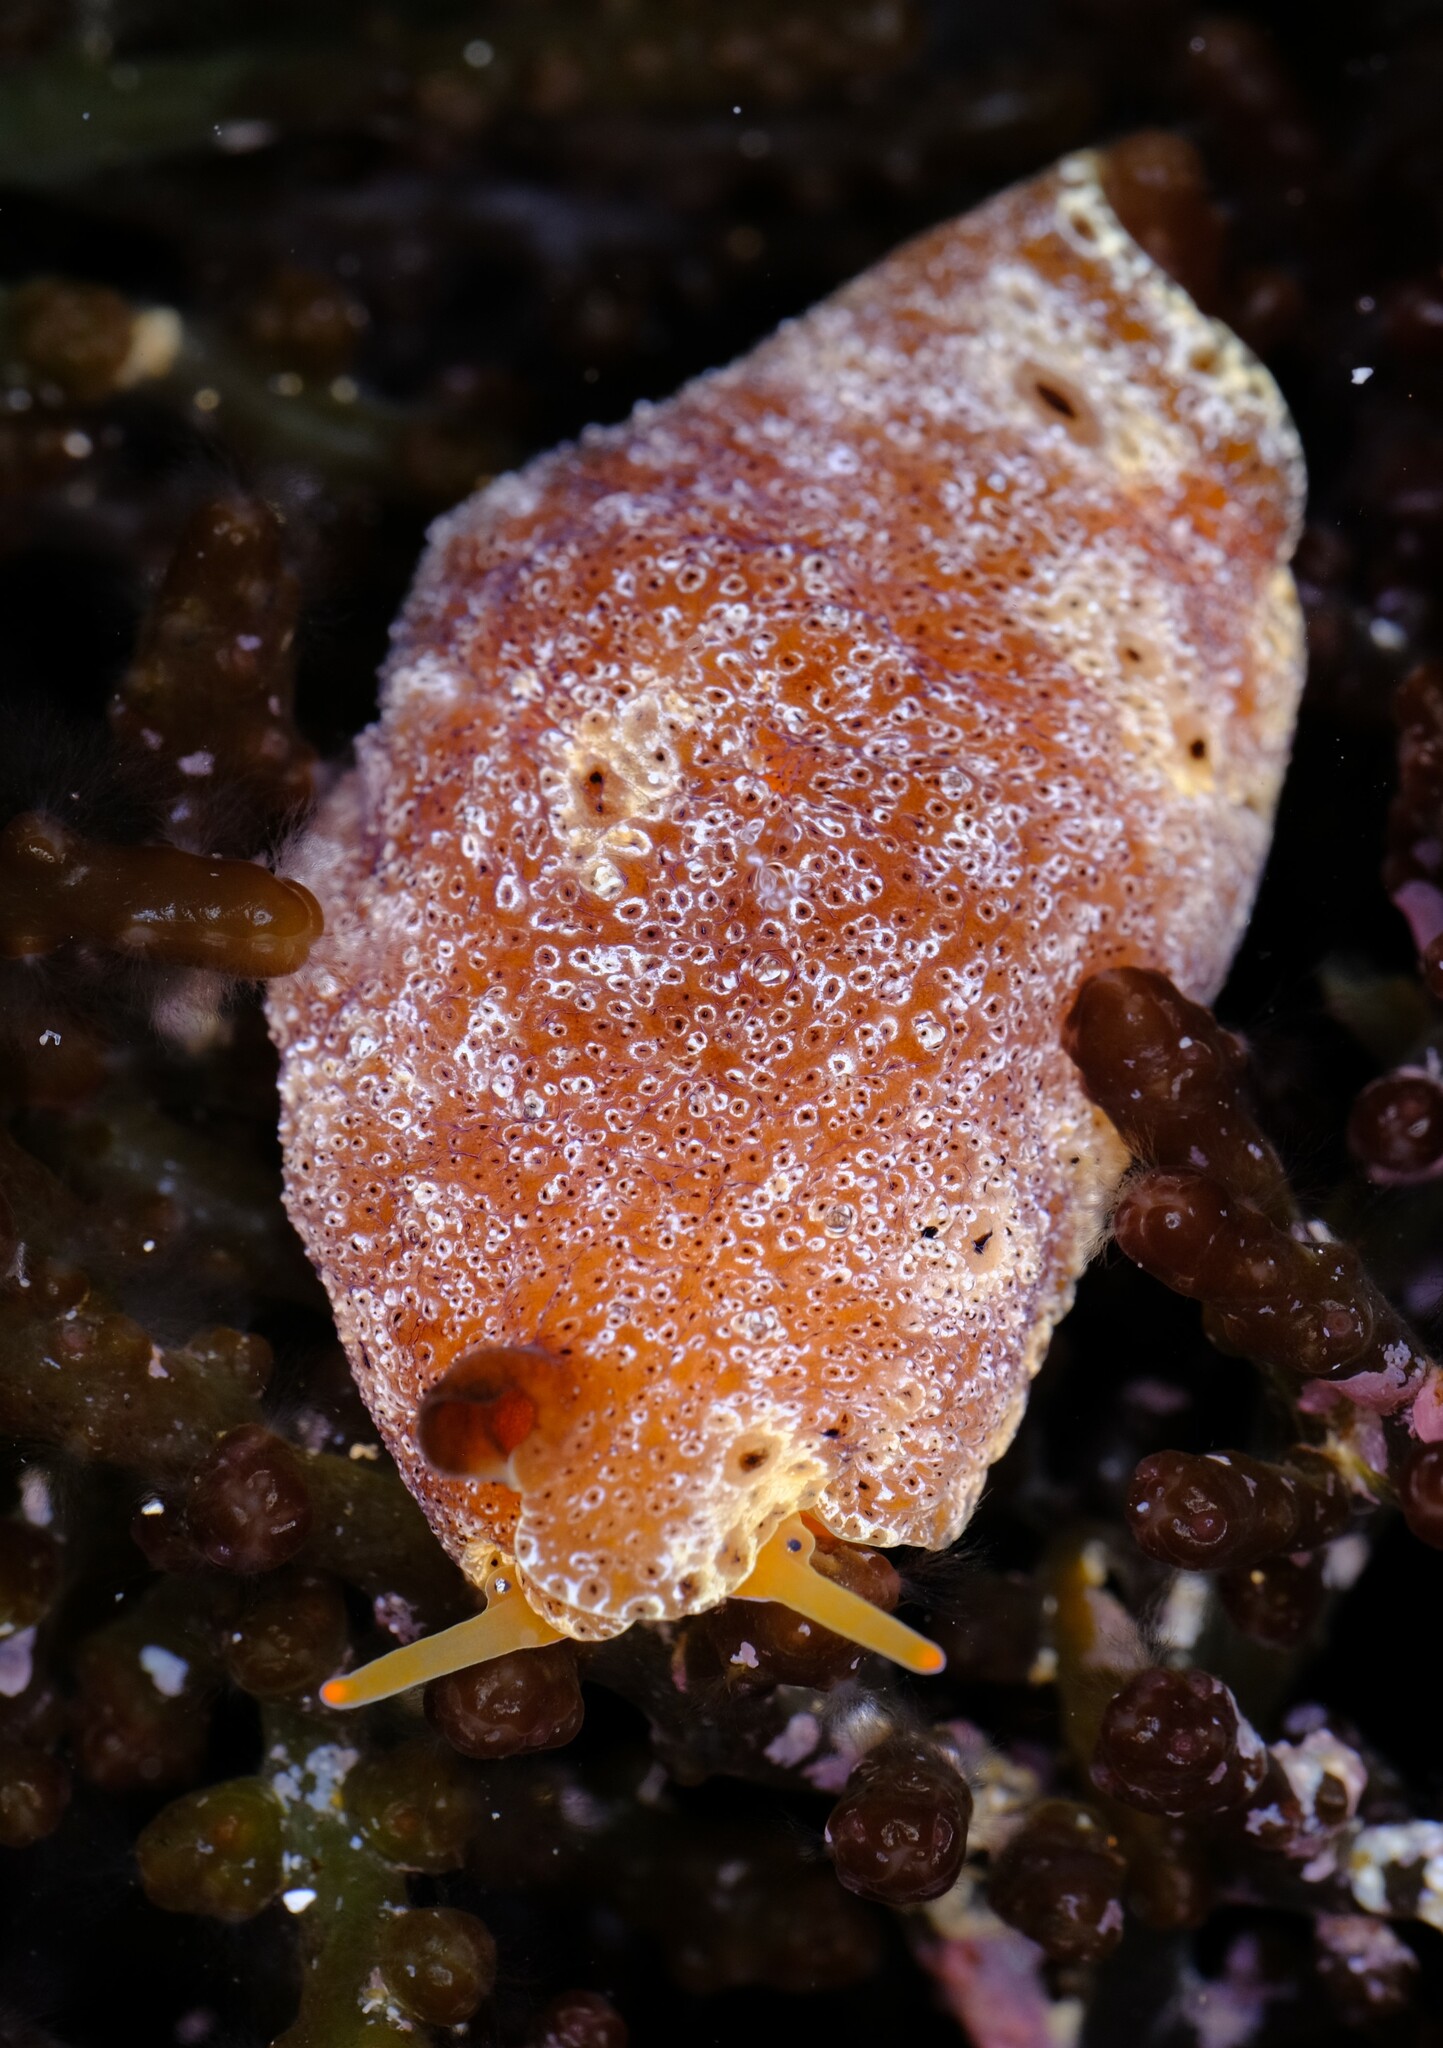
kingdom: Animalia
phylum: Mollusca
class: Gastropoda
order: Littorinimorpha
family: Velutinidae
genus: Djiboutia
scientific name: Djiboutia australis
